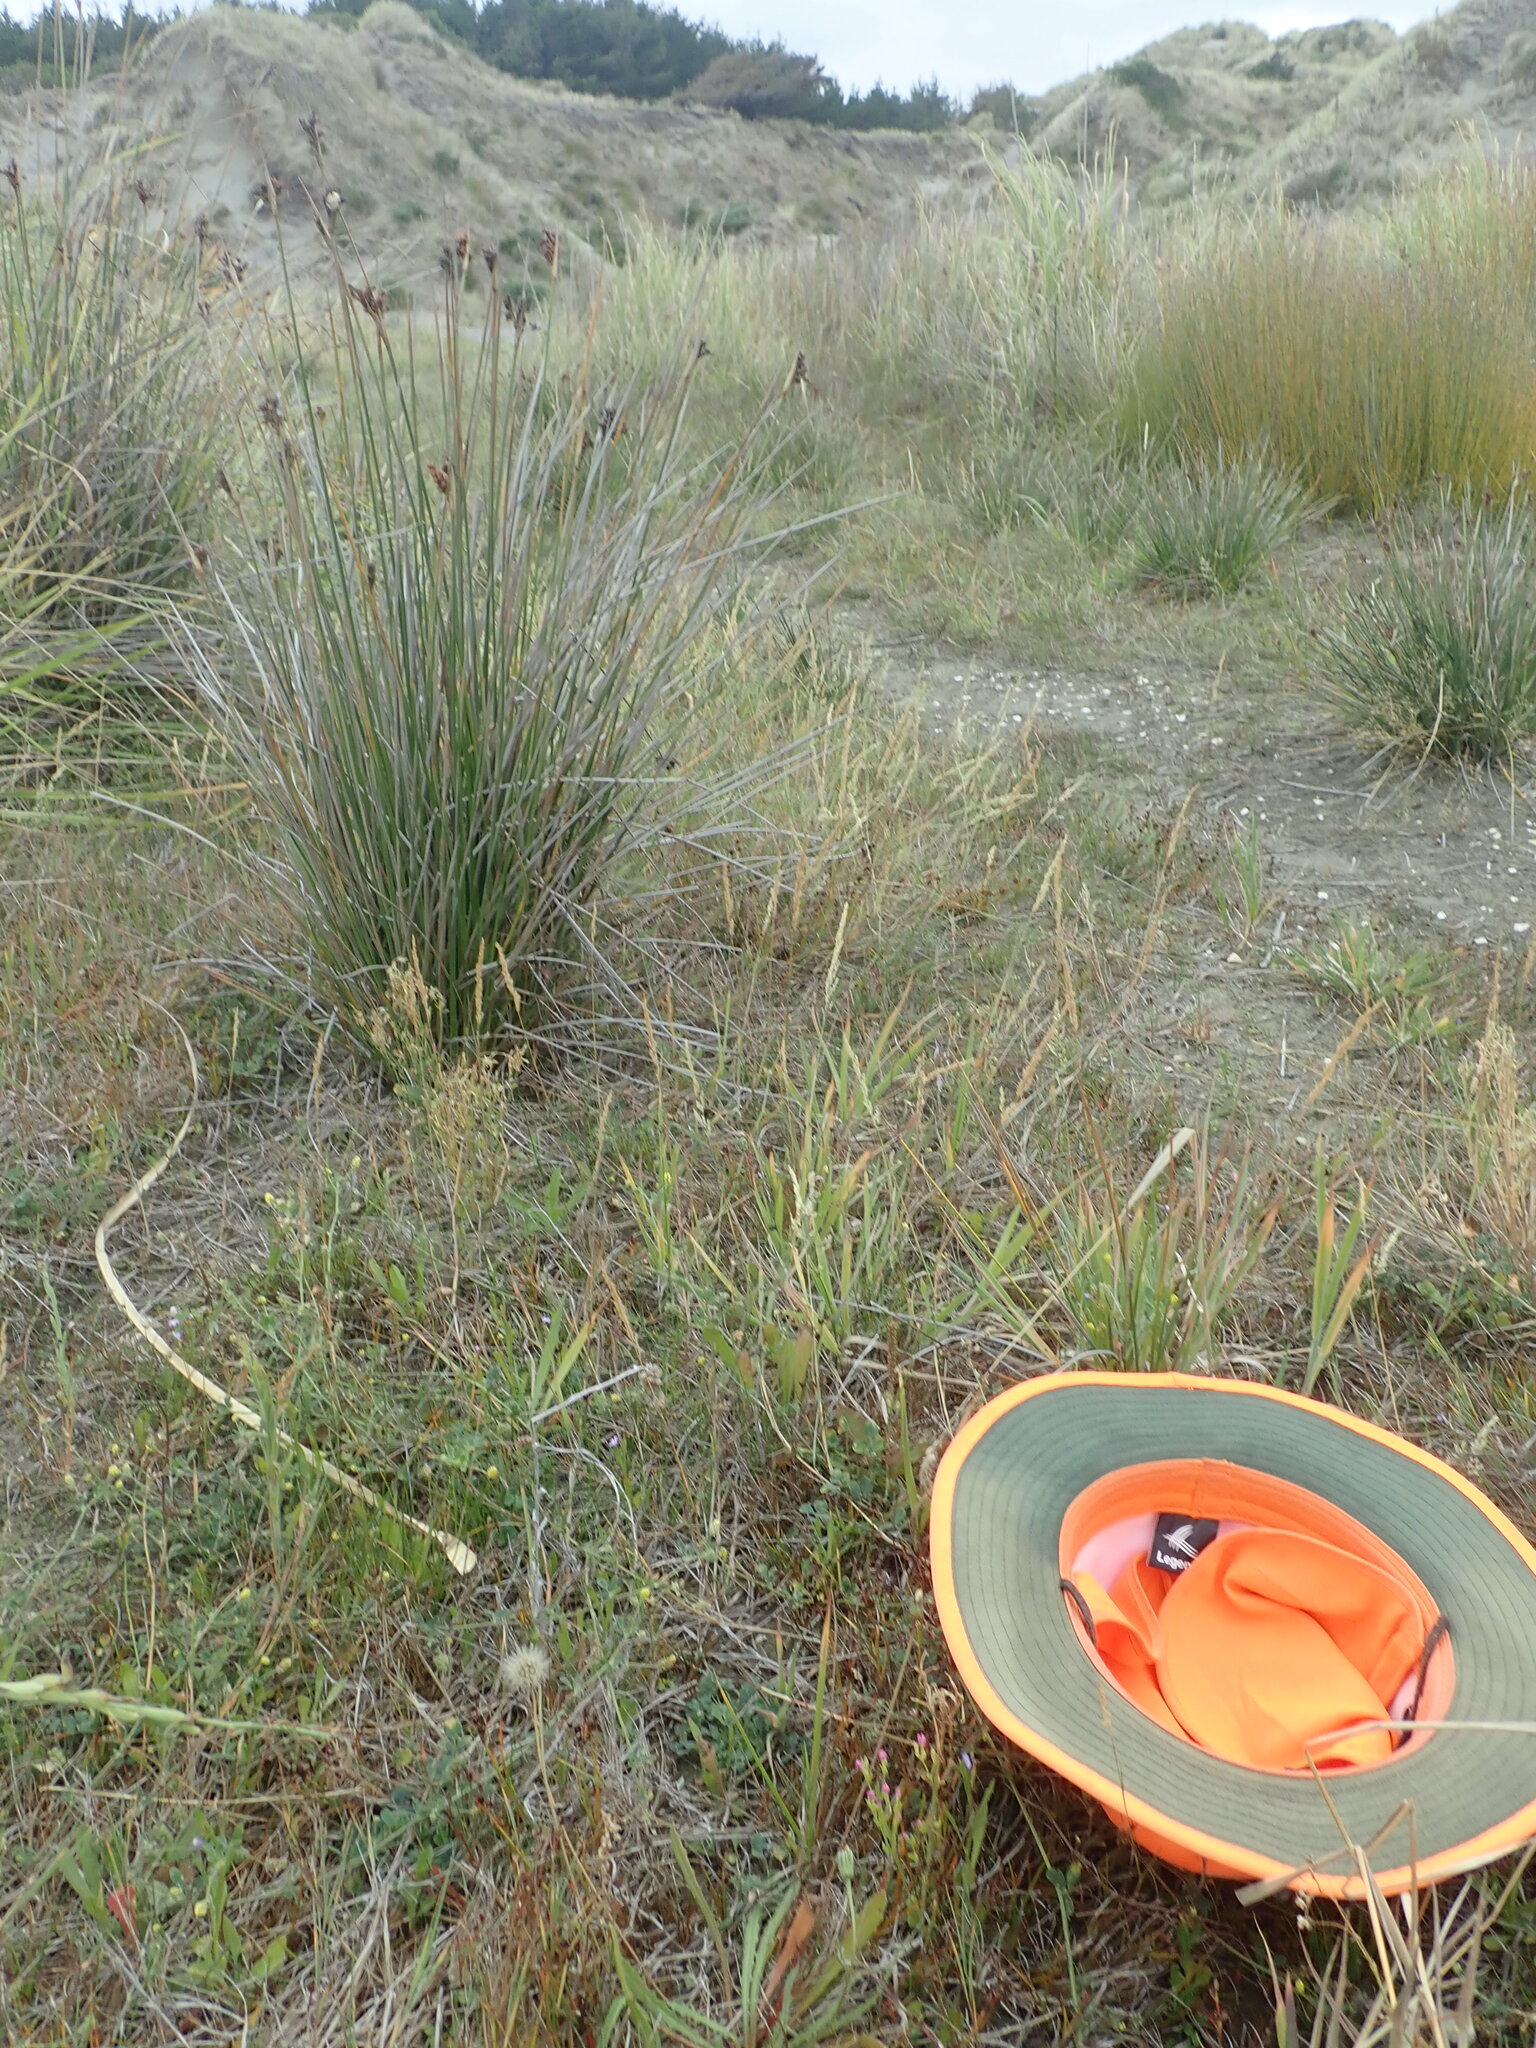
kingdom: Plantae
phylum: Tracheophyta
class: Magnoliopsida
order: Gentianales
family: Gentianaceae
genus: Centaurium
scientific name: Centaurium erythraea
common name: Common centaury
